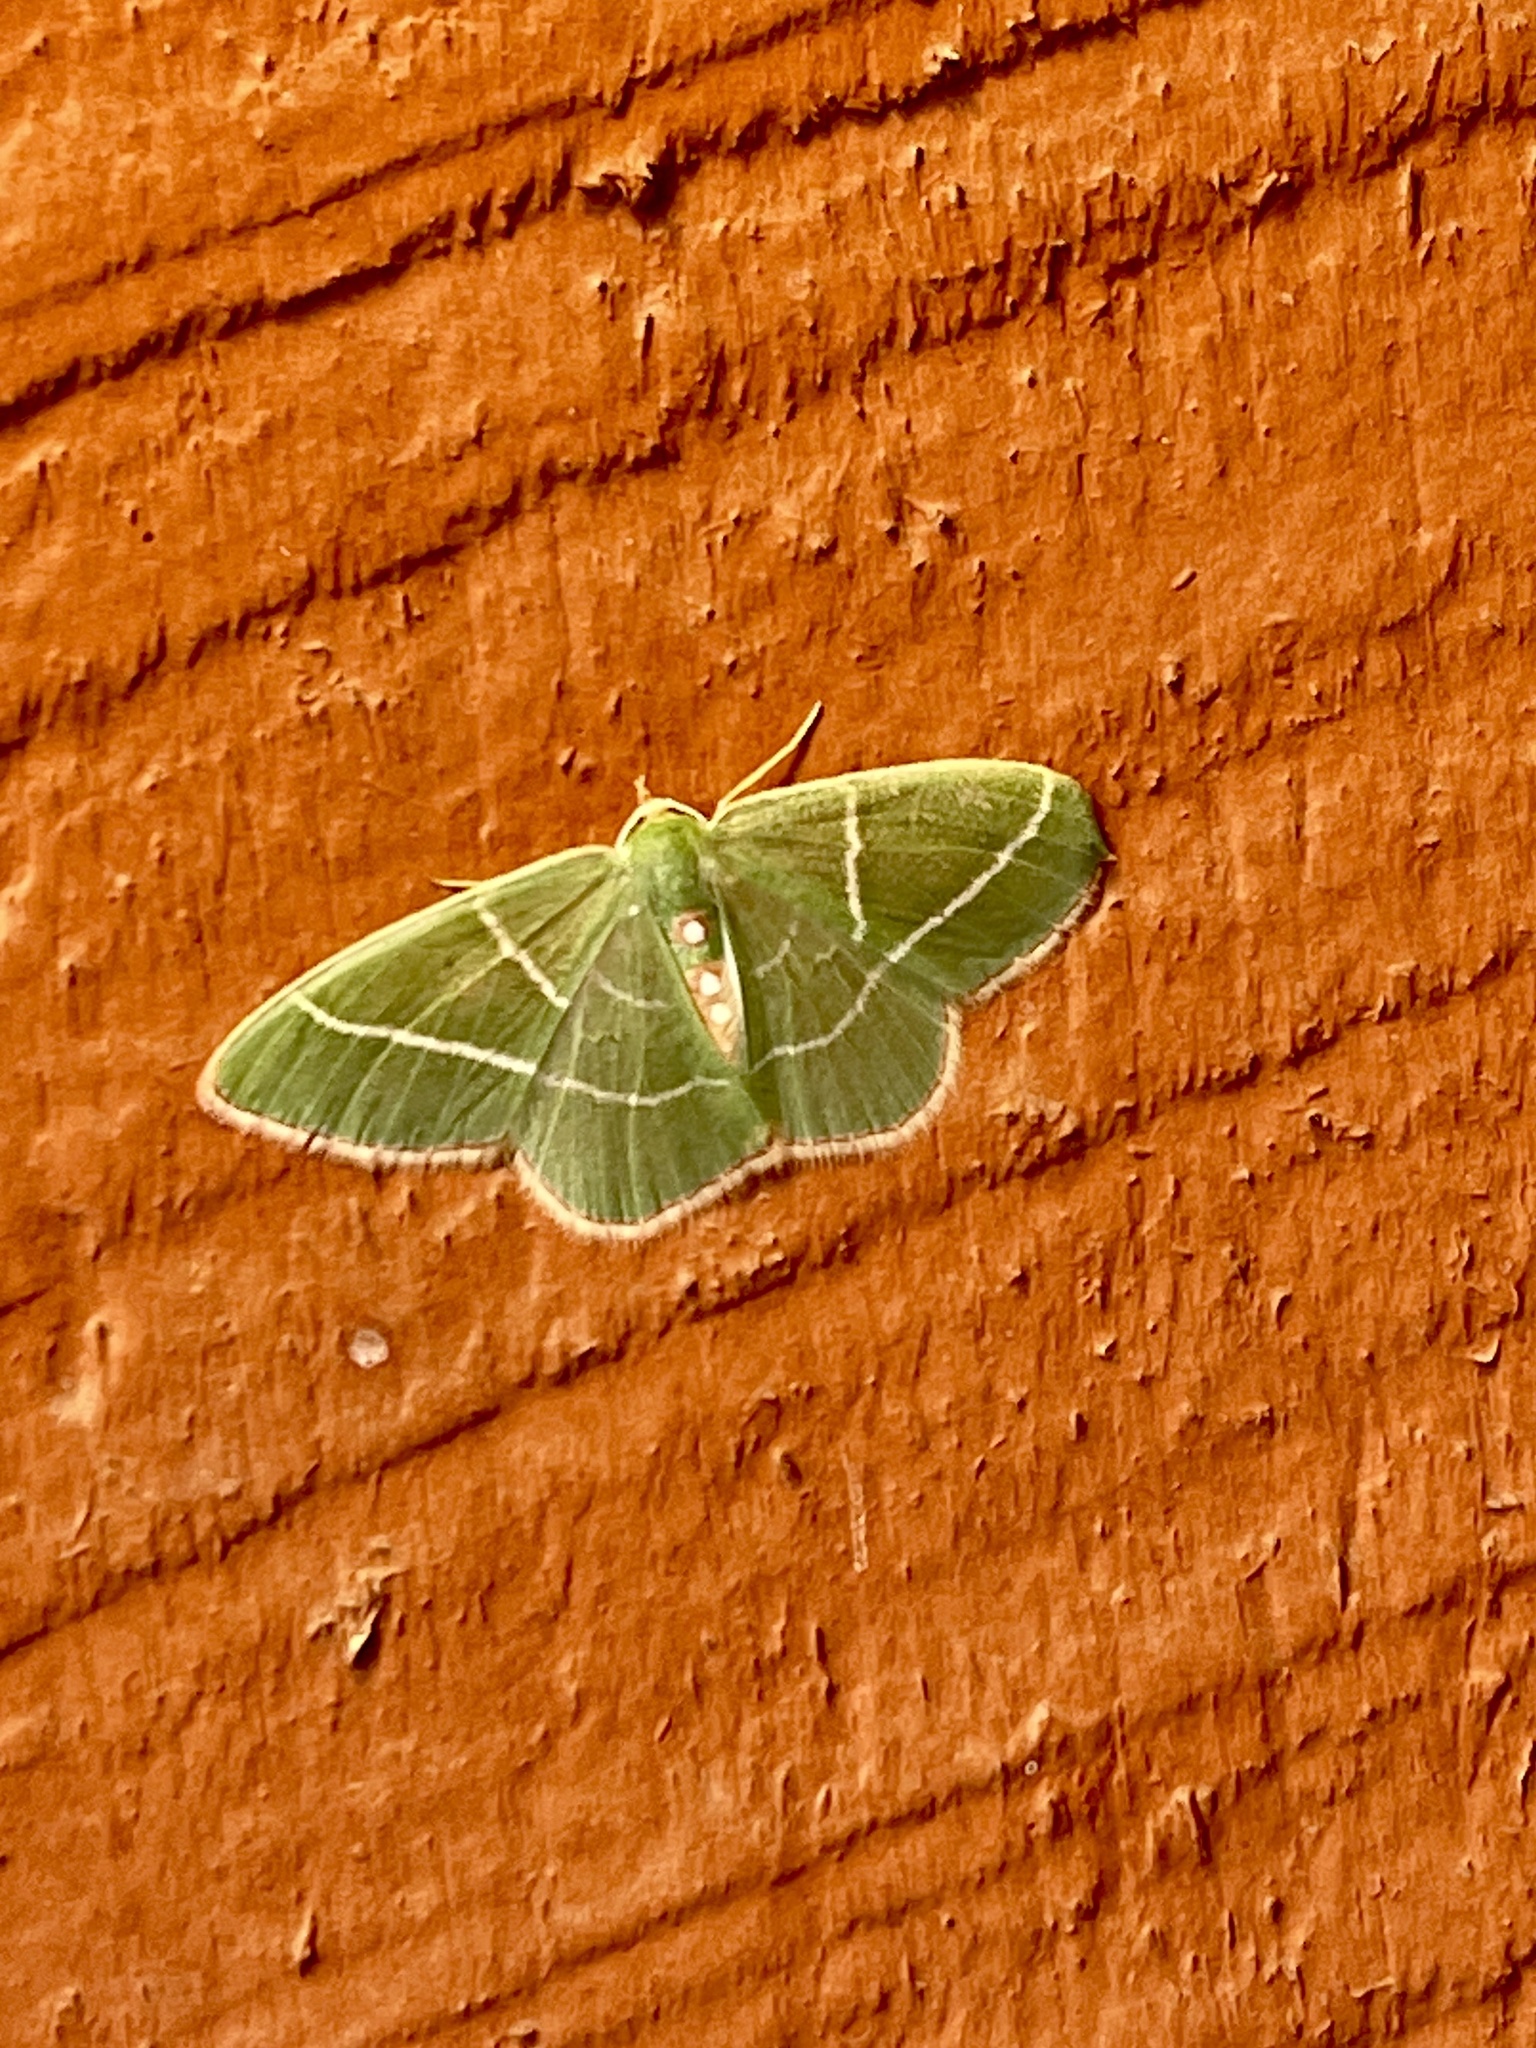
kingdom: Animalia
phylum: Arthropoda
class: Insecta
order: Lepidoptera
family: Geometridae
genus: Nemoria
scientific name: Nemoria obliqua
